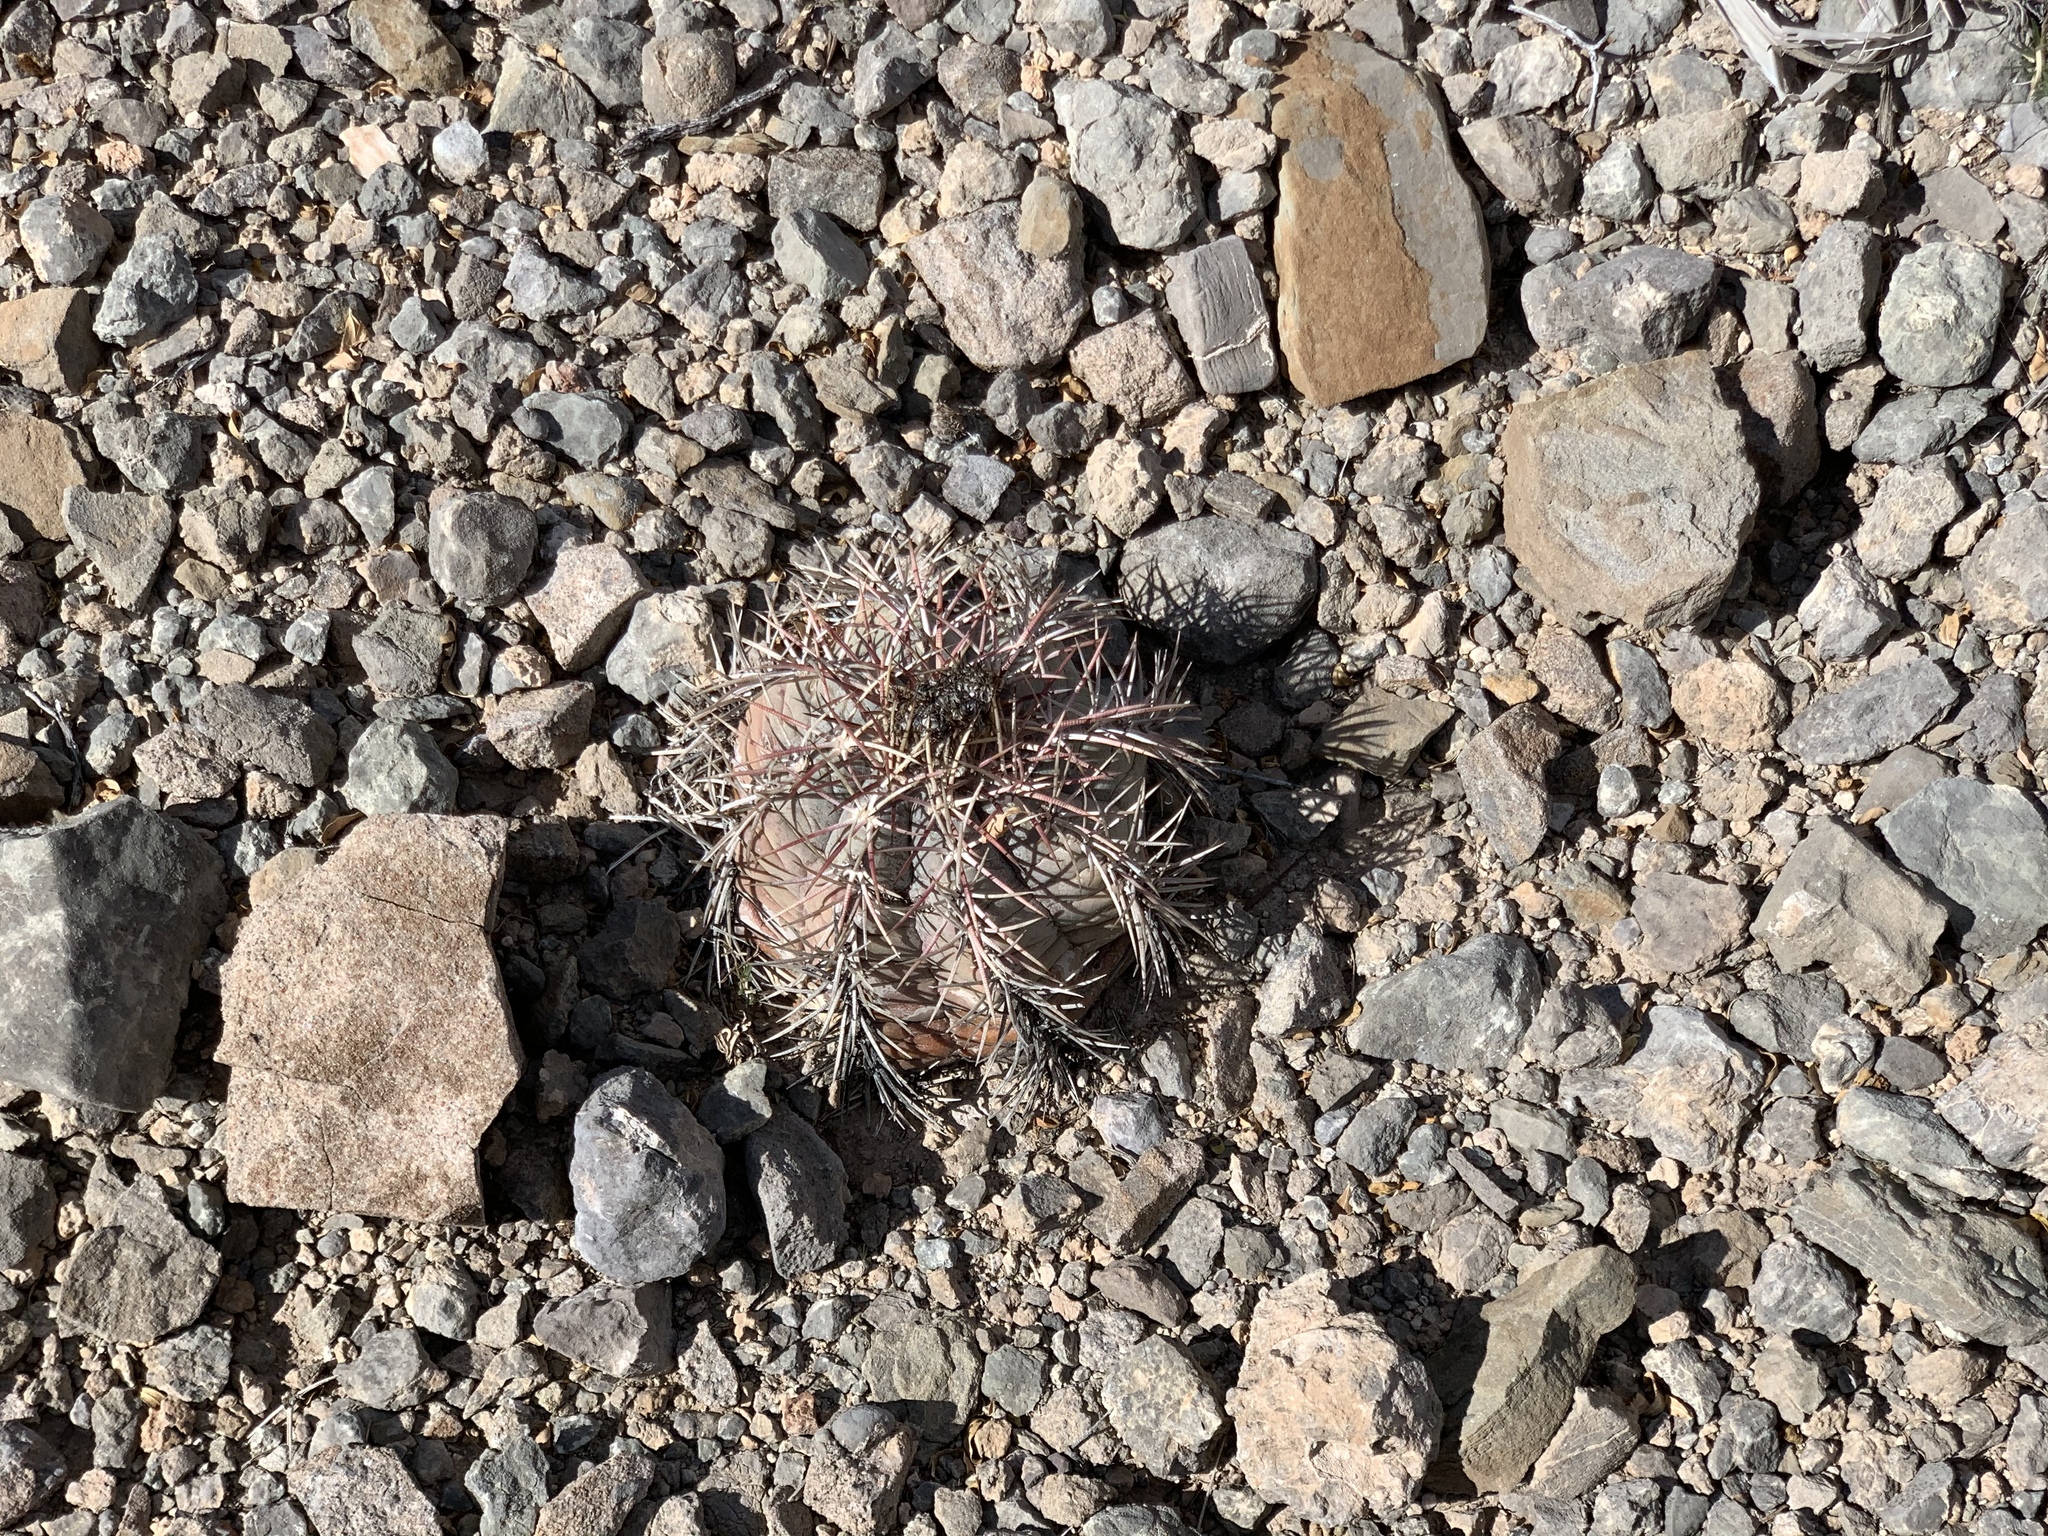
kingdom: Plantae
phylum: Tracheophyta
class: Magnoliopsida
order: Caryophyllales
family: Cactaceae
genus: Echinocactus
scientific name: Echinocactus horizonthalonius
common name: Devilshead
